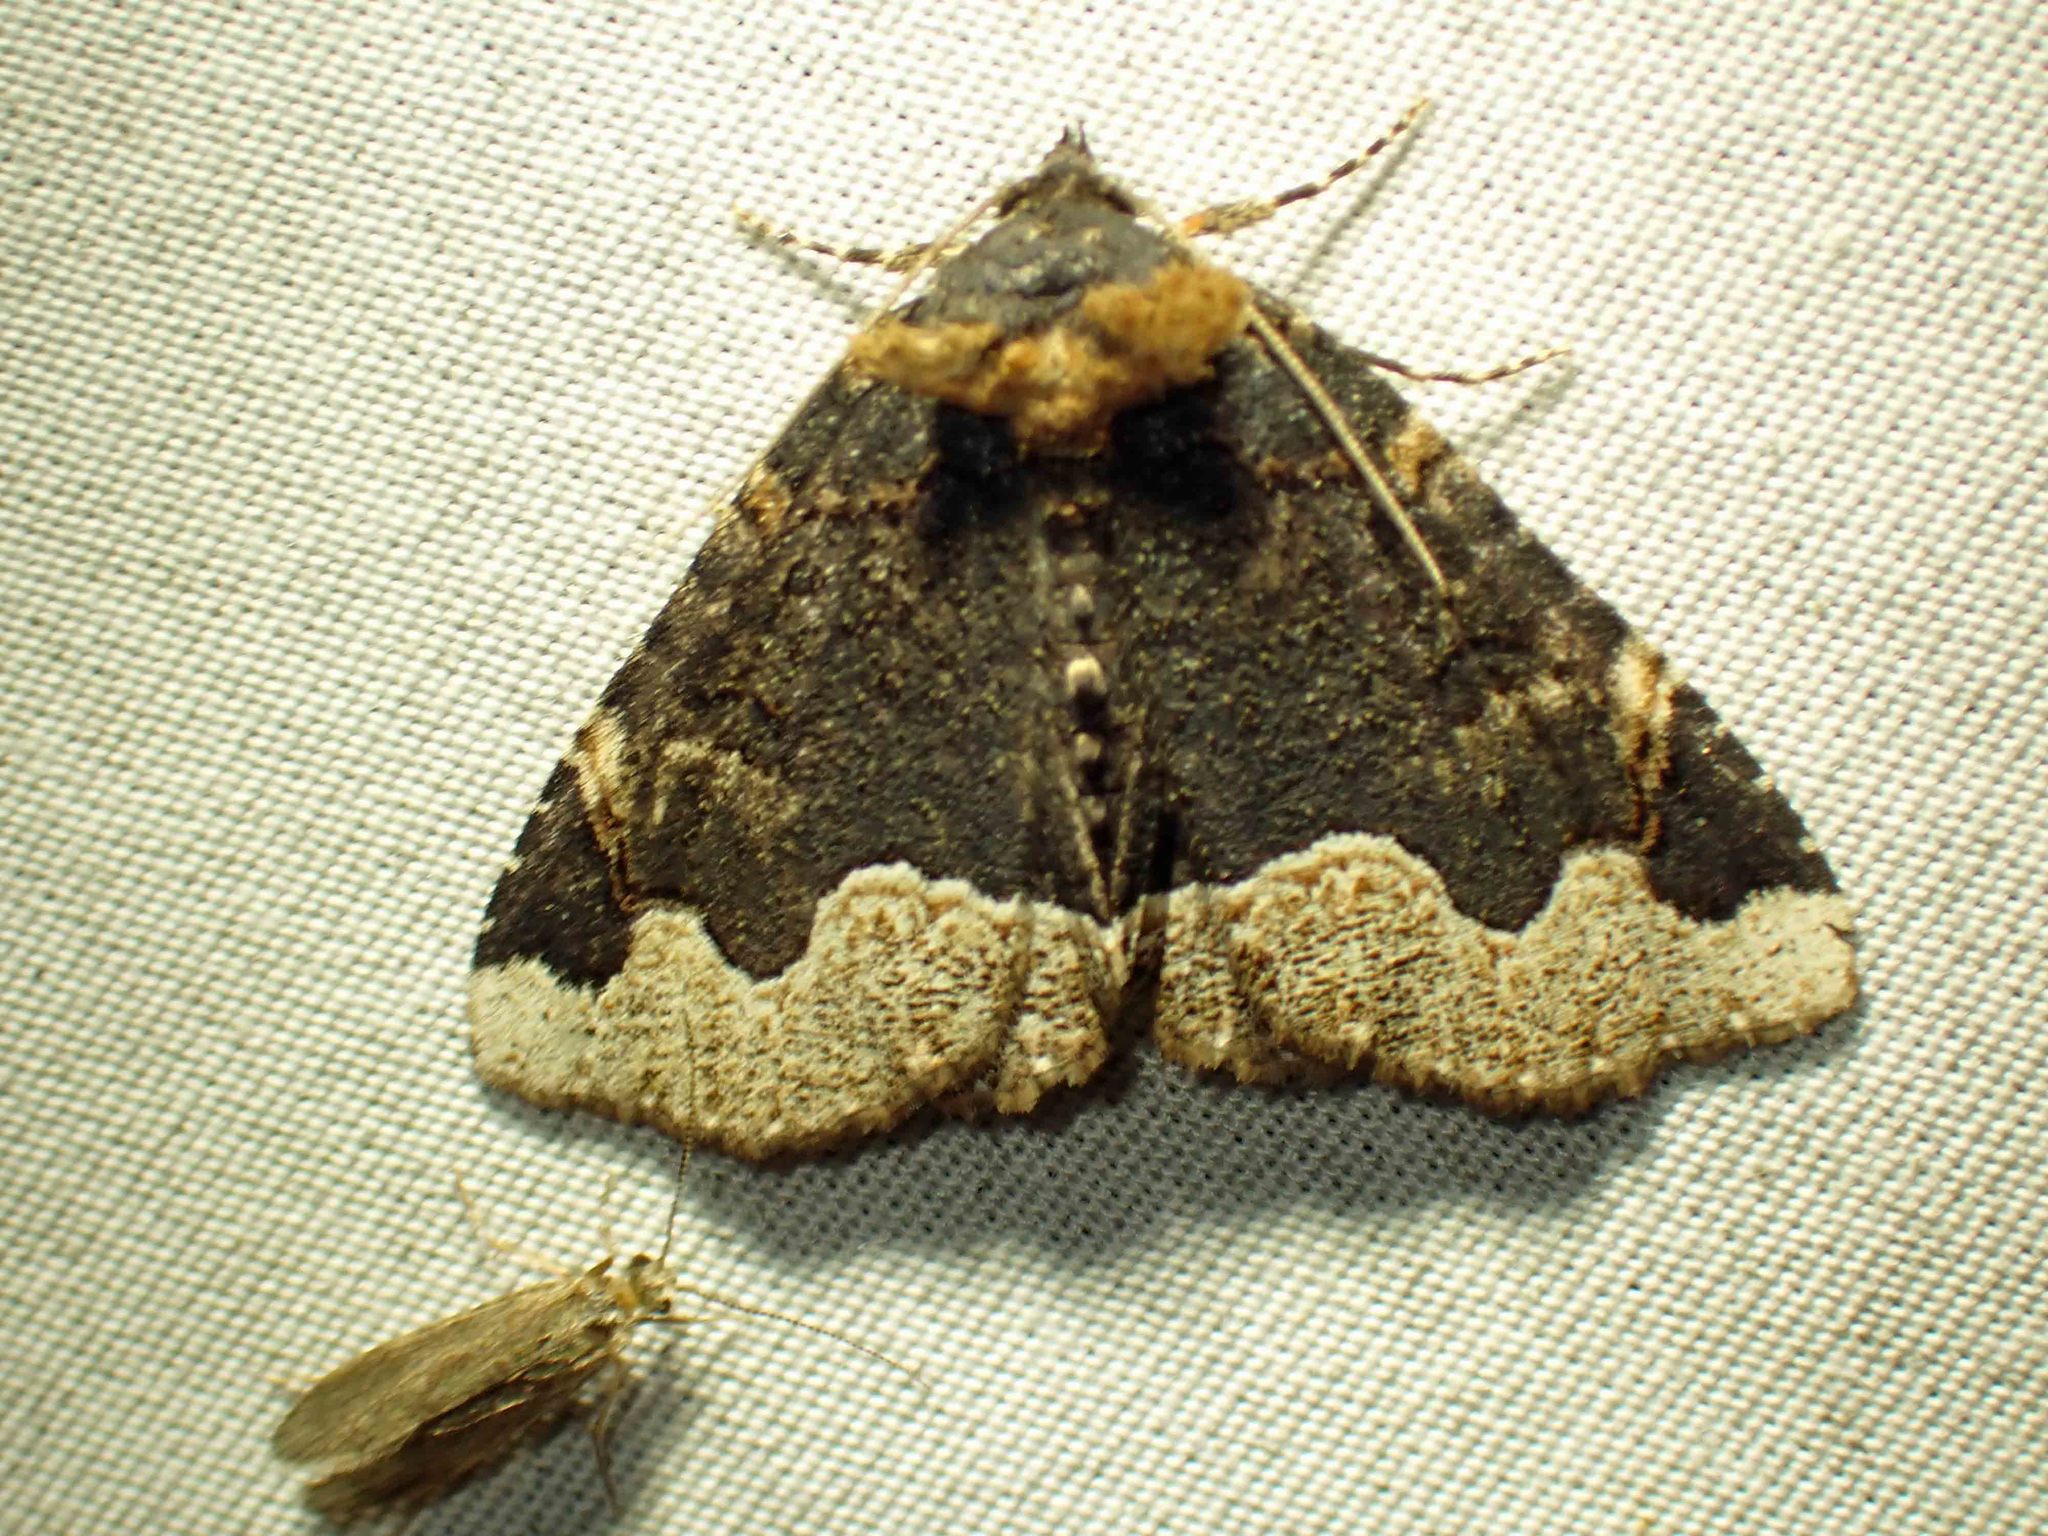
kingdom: Animalia
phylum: Arthropoda
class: Insecta
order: Lepidoptera
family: Erebidae
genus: Zale
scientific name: Zale horrida
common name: Horrid zale moth
